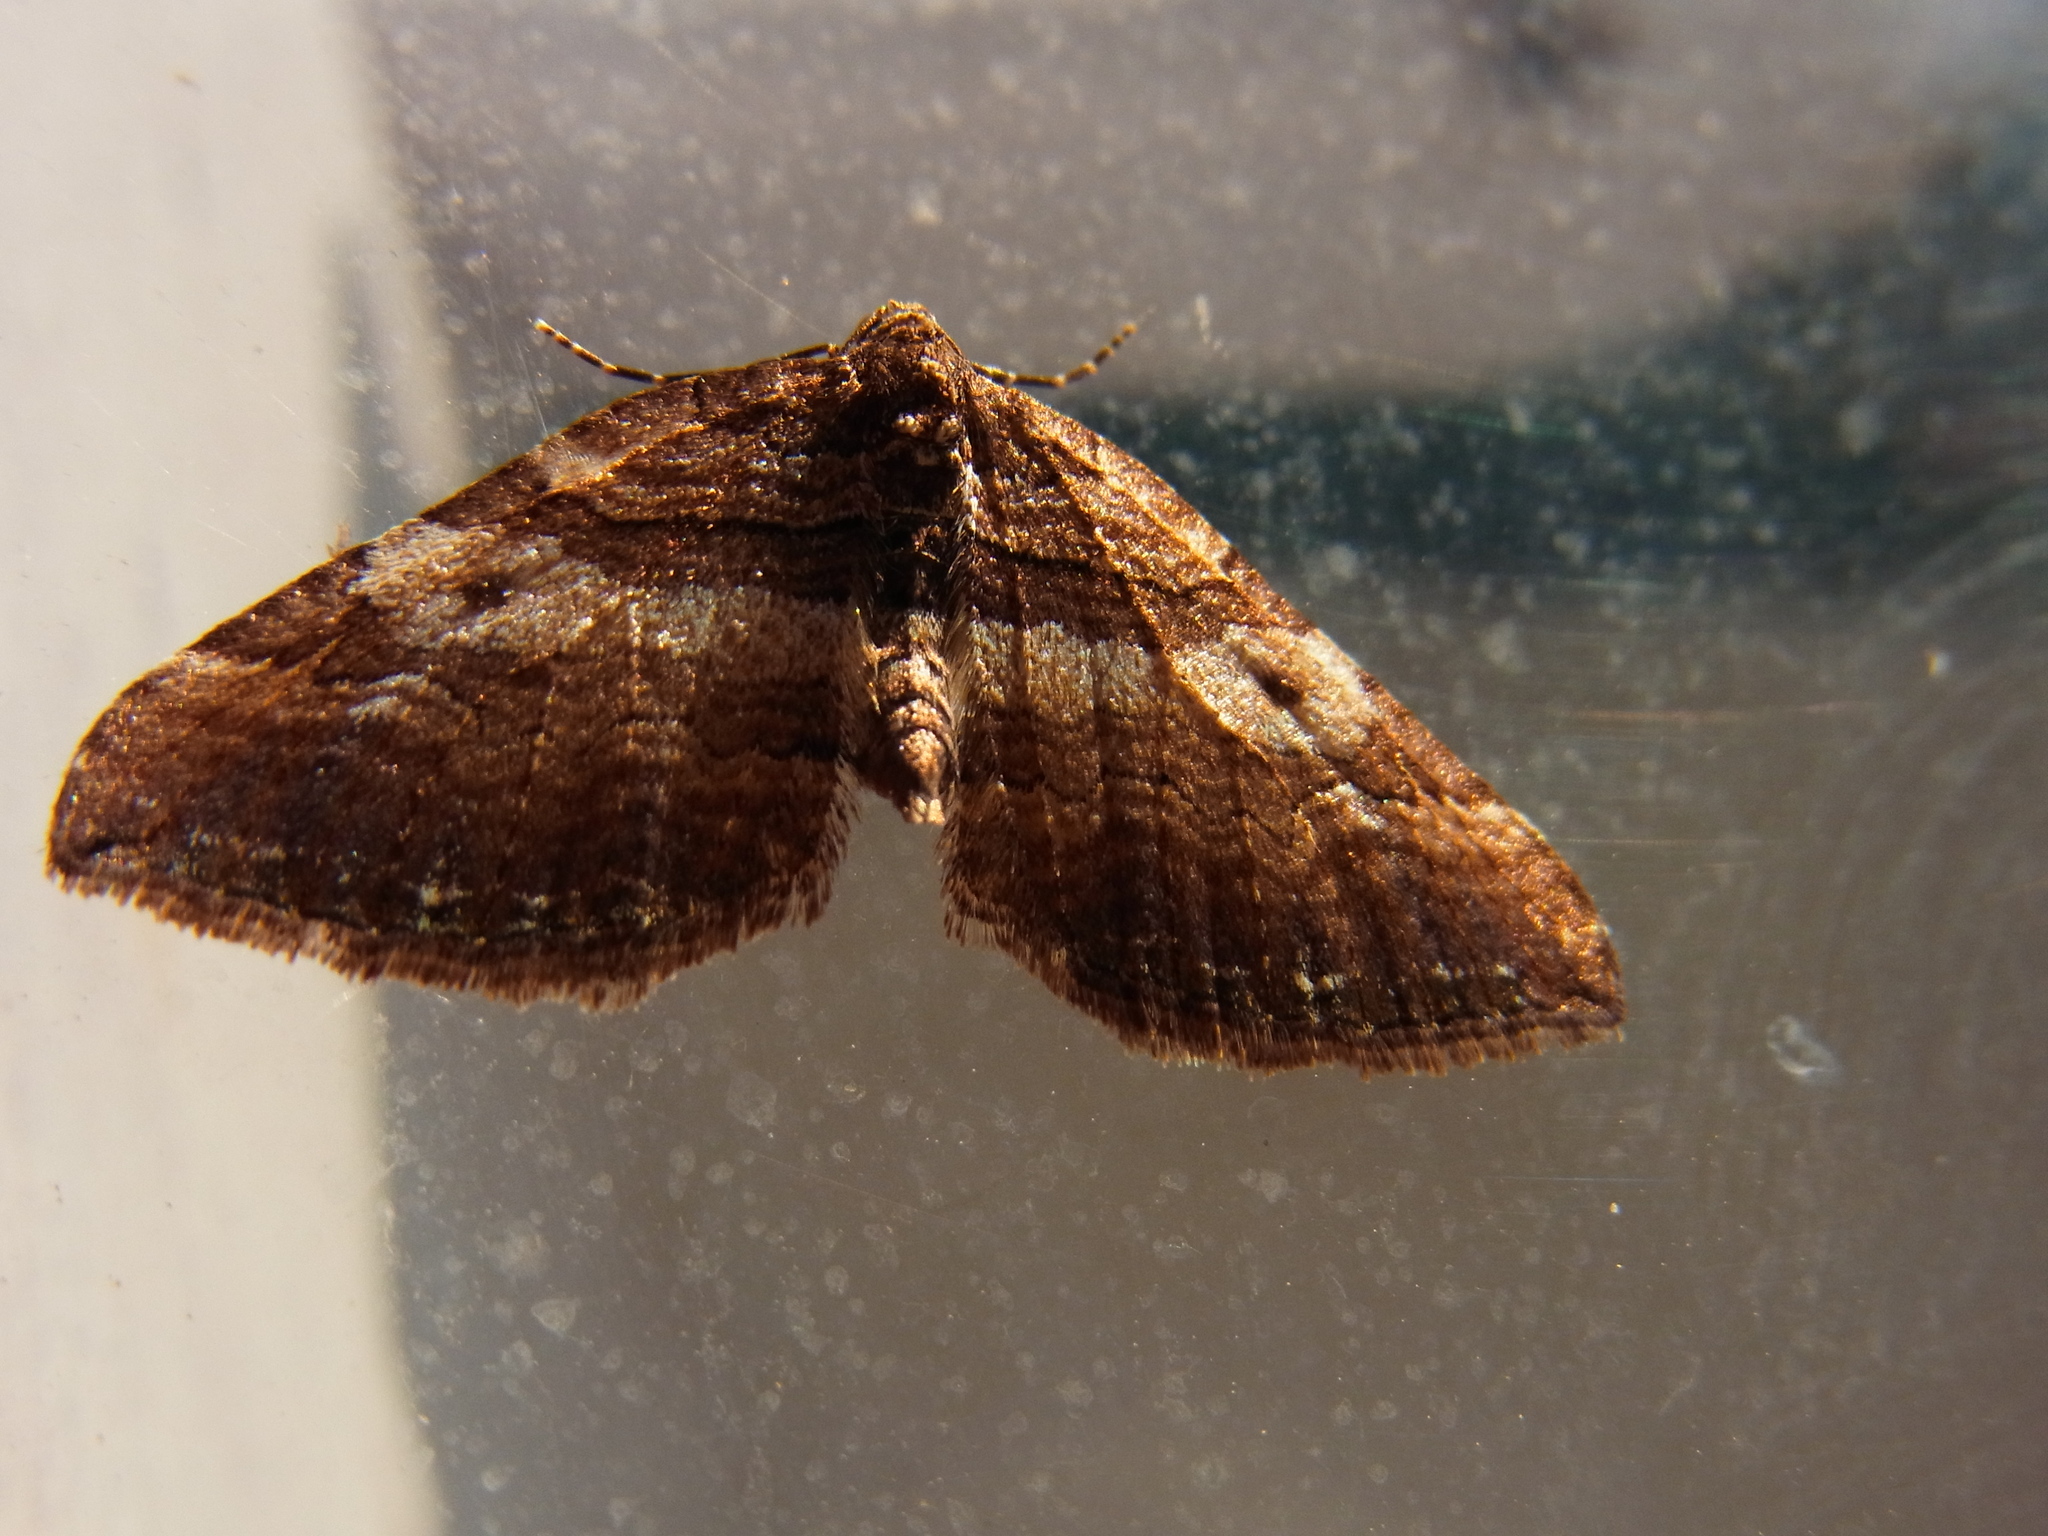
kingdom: Animalia
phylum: Arthropoda
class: Insecta
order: Lepidoptera
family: Geometridae
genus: Anticlea
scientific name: Anticlea correlata
